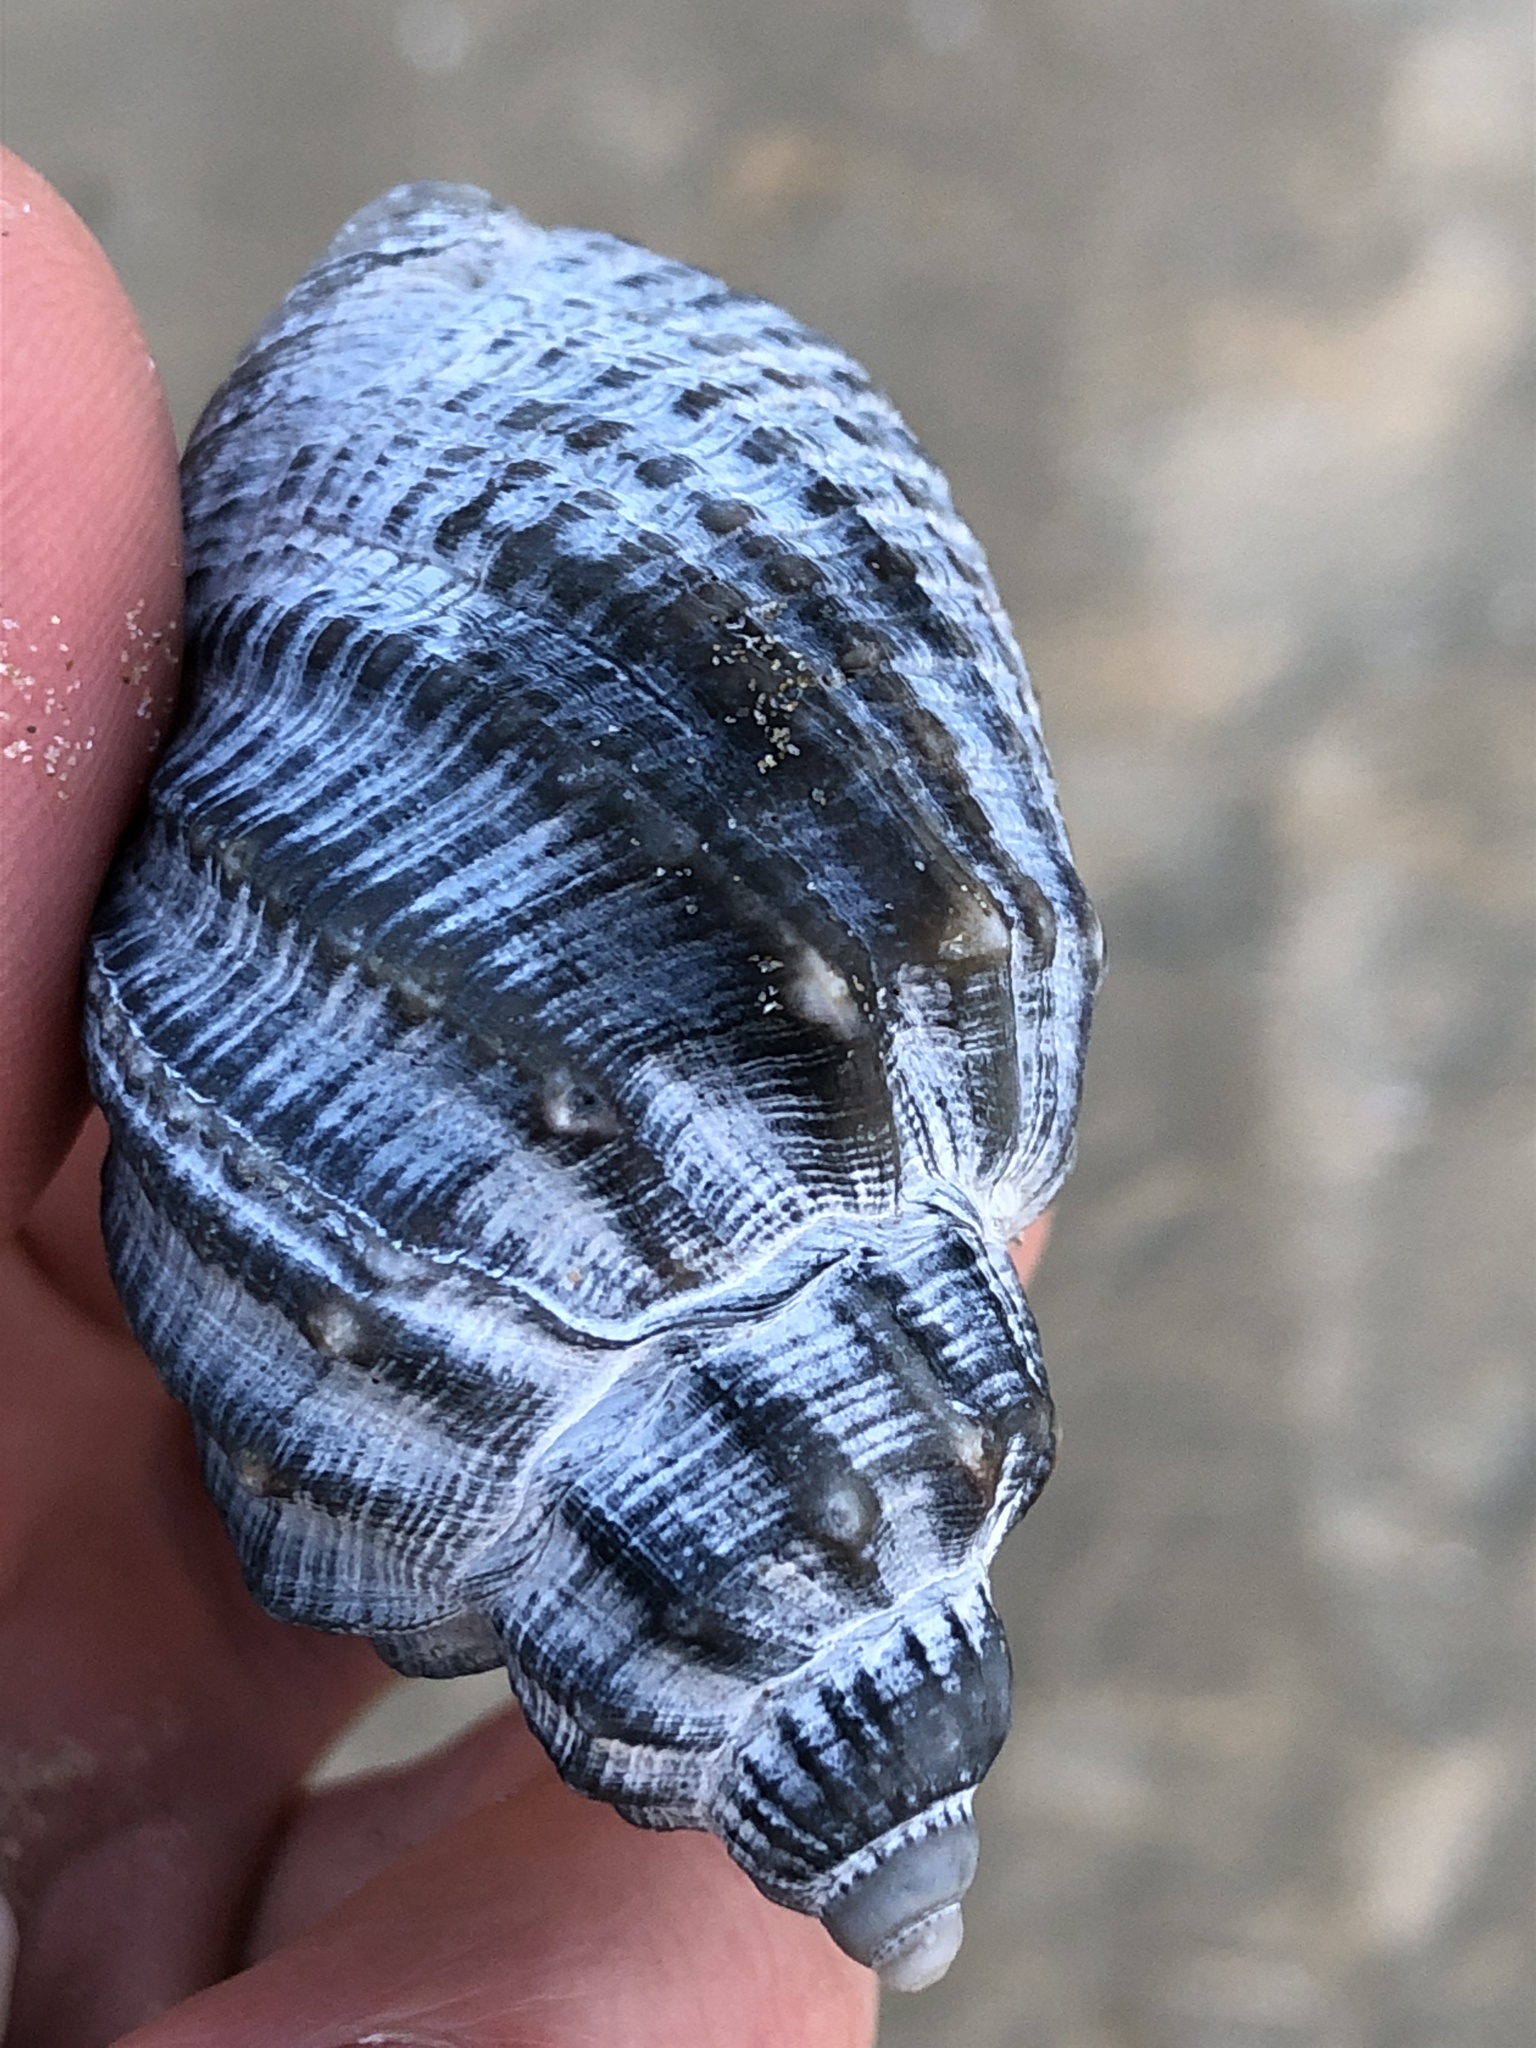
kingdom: Animalia
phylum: Mollusca
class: Gastropoda
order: Neogastropoda
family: Cancellariidae
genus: Sydaphera
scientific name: Sydaphera spengleriana
